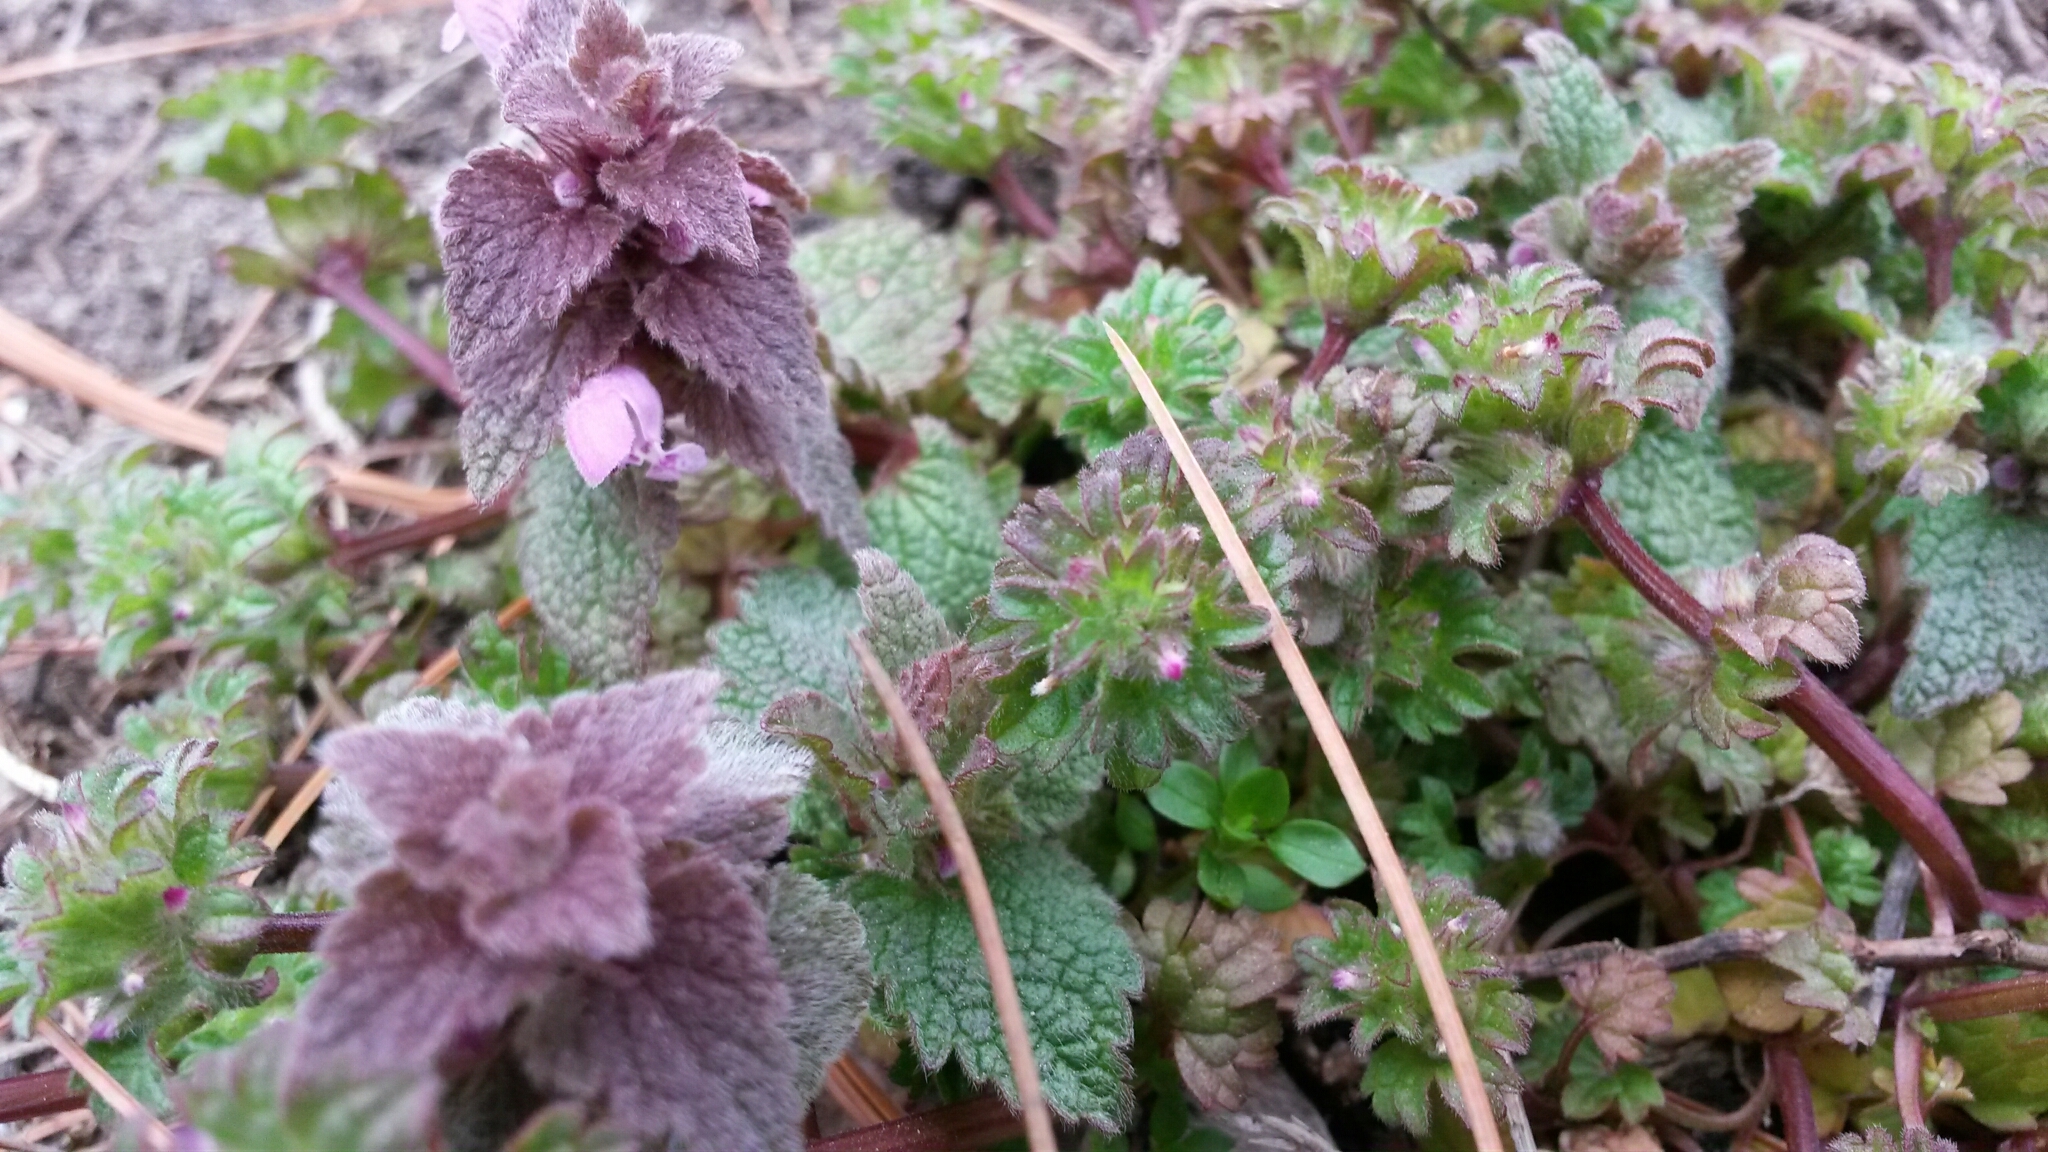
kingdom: Plantae
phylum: Tracheophyta
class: Magnoliopsida
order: Lamiales
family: Lamiaceae
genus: Lamium
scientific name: Lamium purpureum
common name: Red dead-nettle
